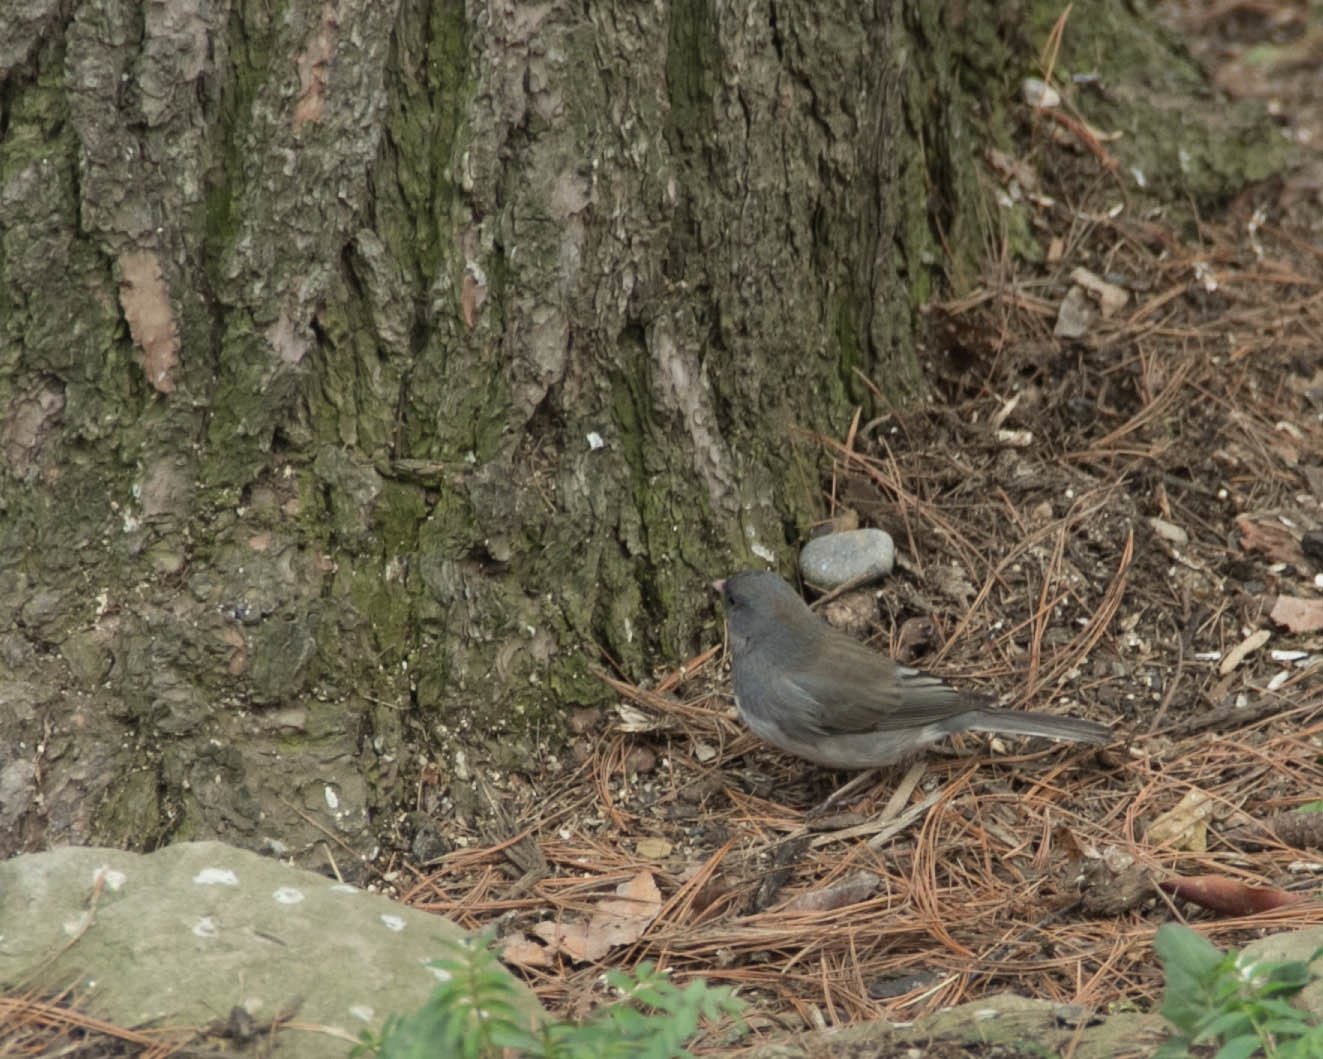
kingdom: Animalia
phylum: Chordata
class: Aves
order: Passeriformes
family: Passerellidae
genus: Junco
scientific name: Junco hyemalis
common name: Dark-eyed junco
